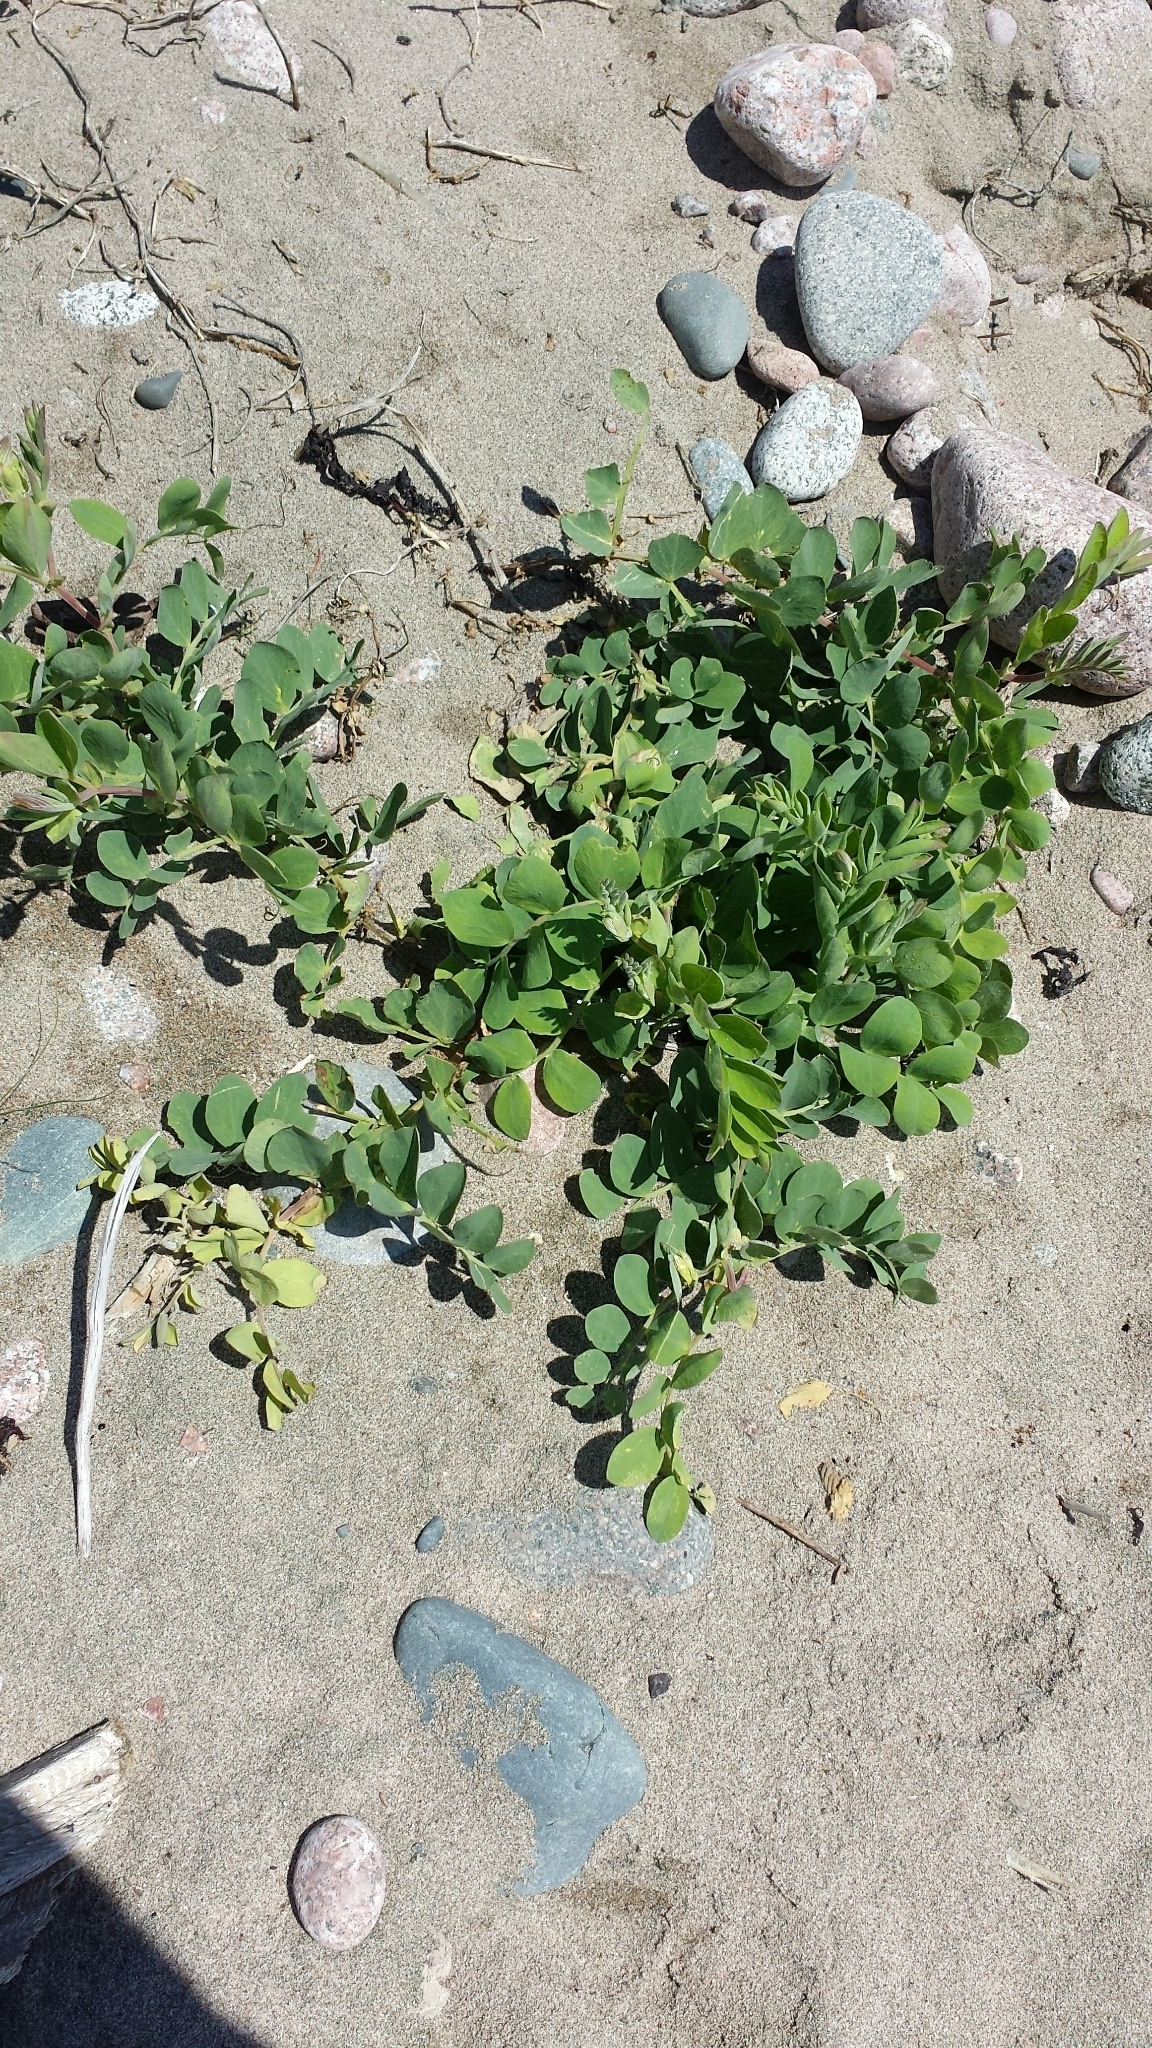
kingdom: Plantae
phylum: Tracheophyta
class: Magnoliopsida
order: Fabales
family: Fabaceae
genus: Lathyrus
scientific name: Lathyrus japonicus
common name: Sea pea
